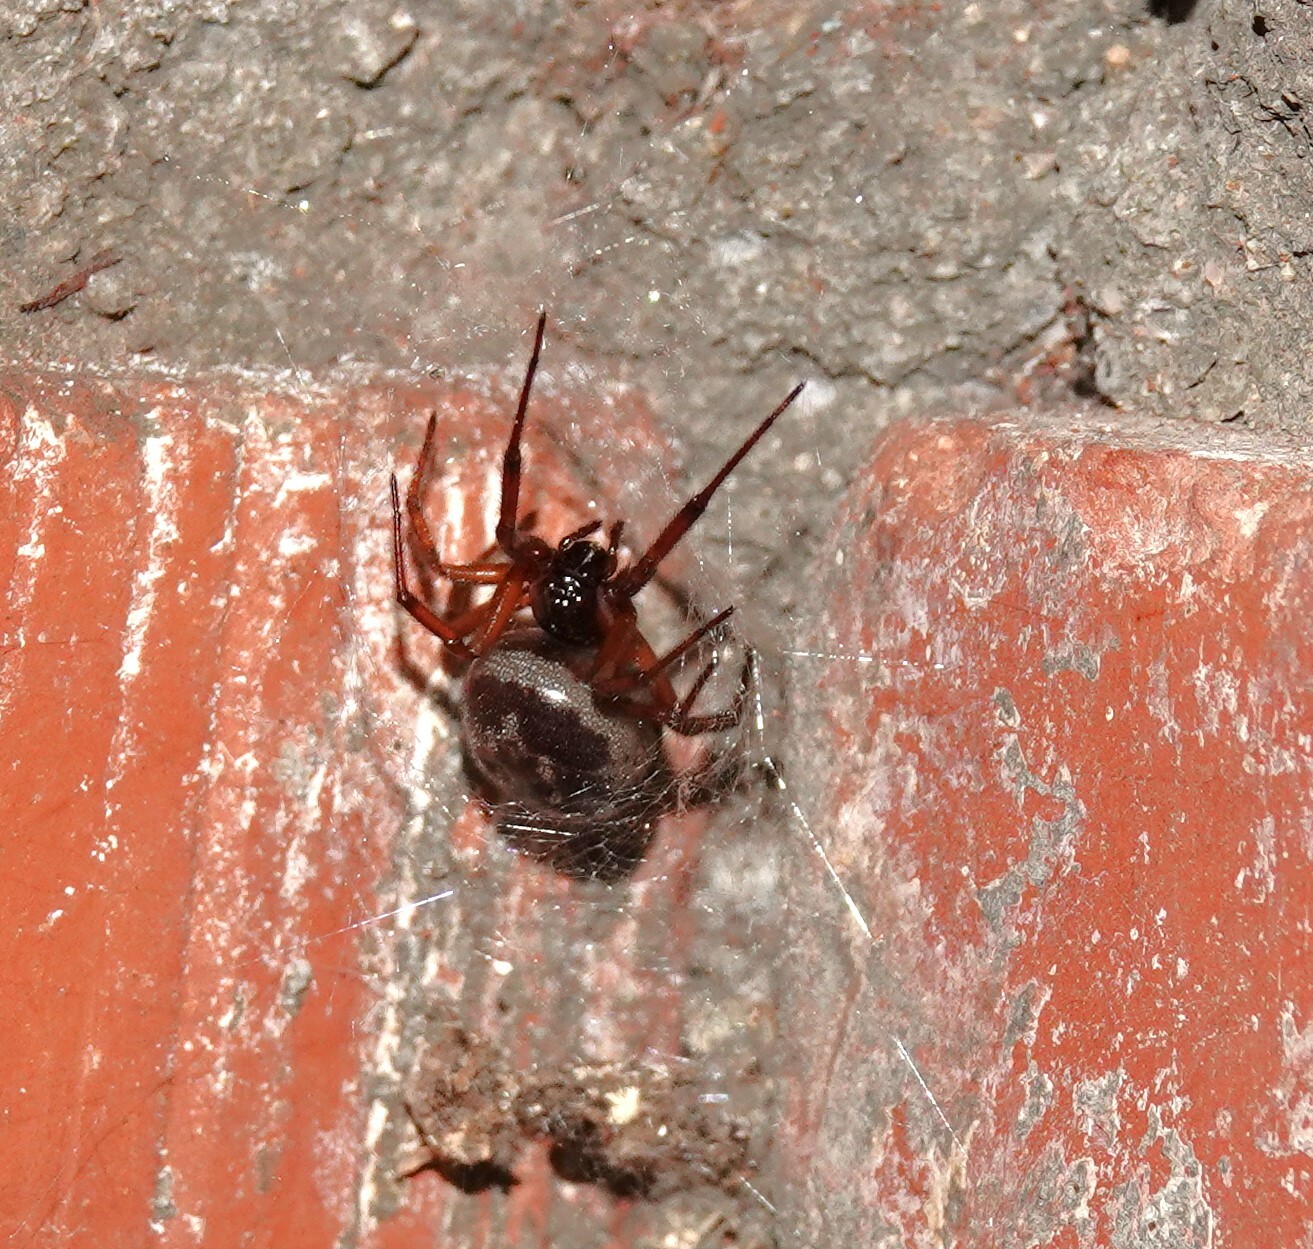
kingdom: Animalia
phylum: Arthropoda
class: Arachnida
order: Araneae
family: Theridiidae
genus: Steatoda
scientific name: Steatoda nobilis
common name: Cobweb weaver
